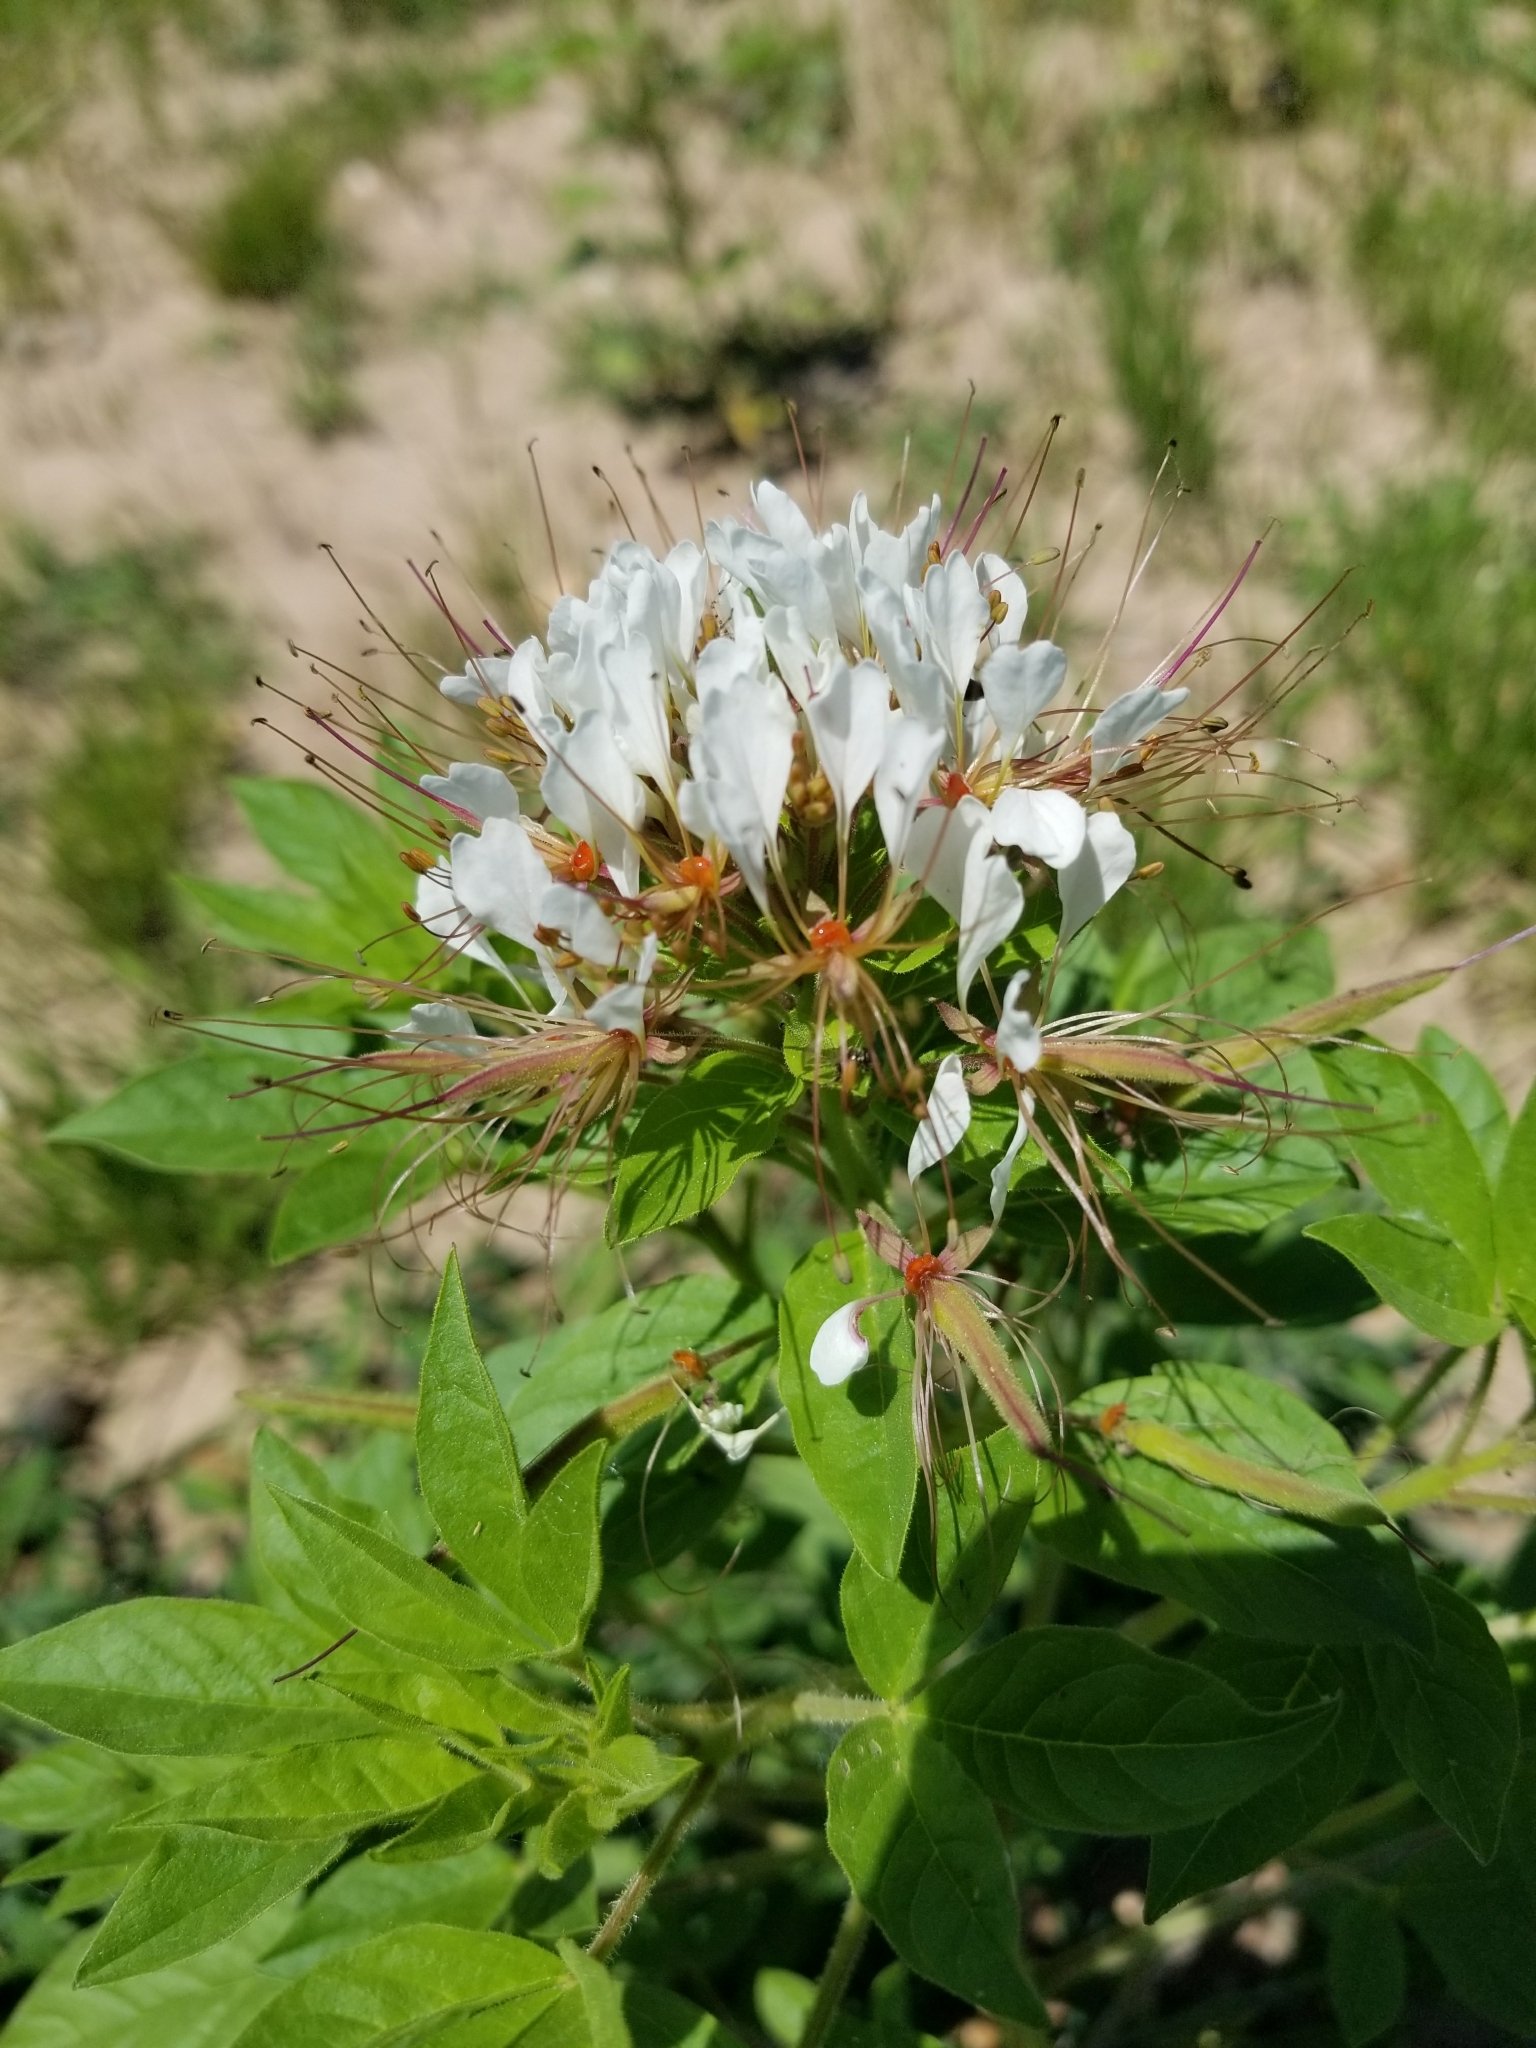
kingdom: Plantae
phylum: Tracheophyta
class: Magnoliopsida
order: Brassicales
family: Cleomaceae
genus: Polanisia
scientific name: Polanisia dodecandra
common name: Clammyweed
